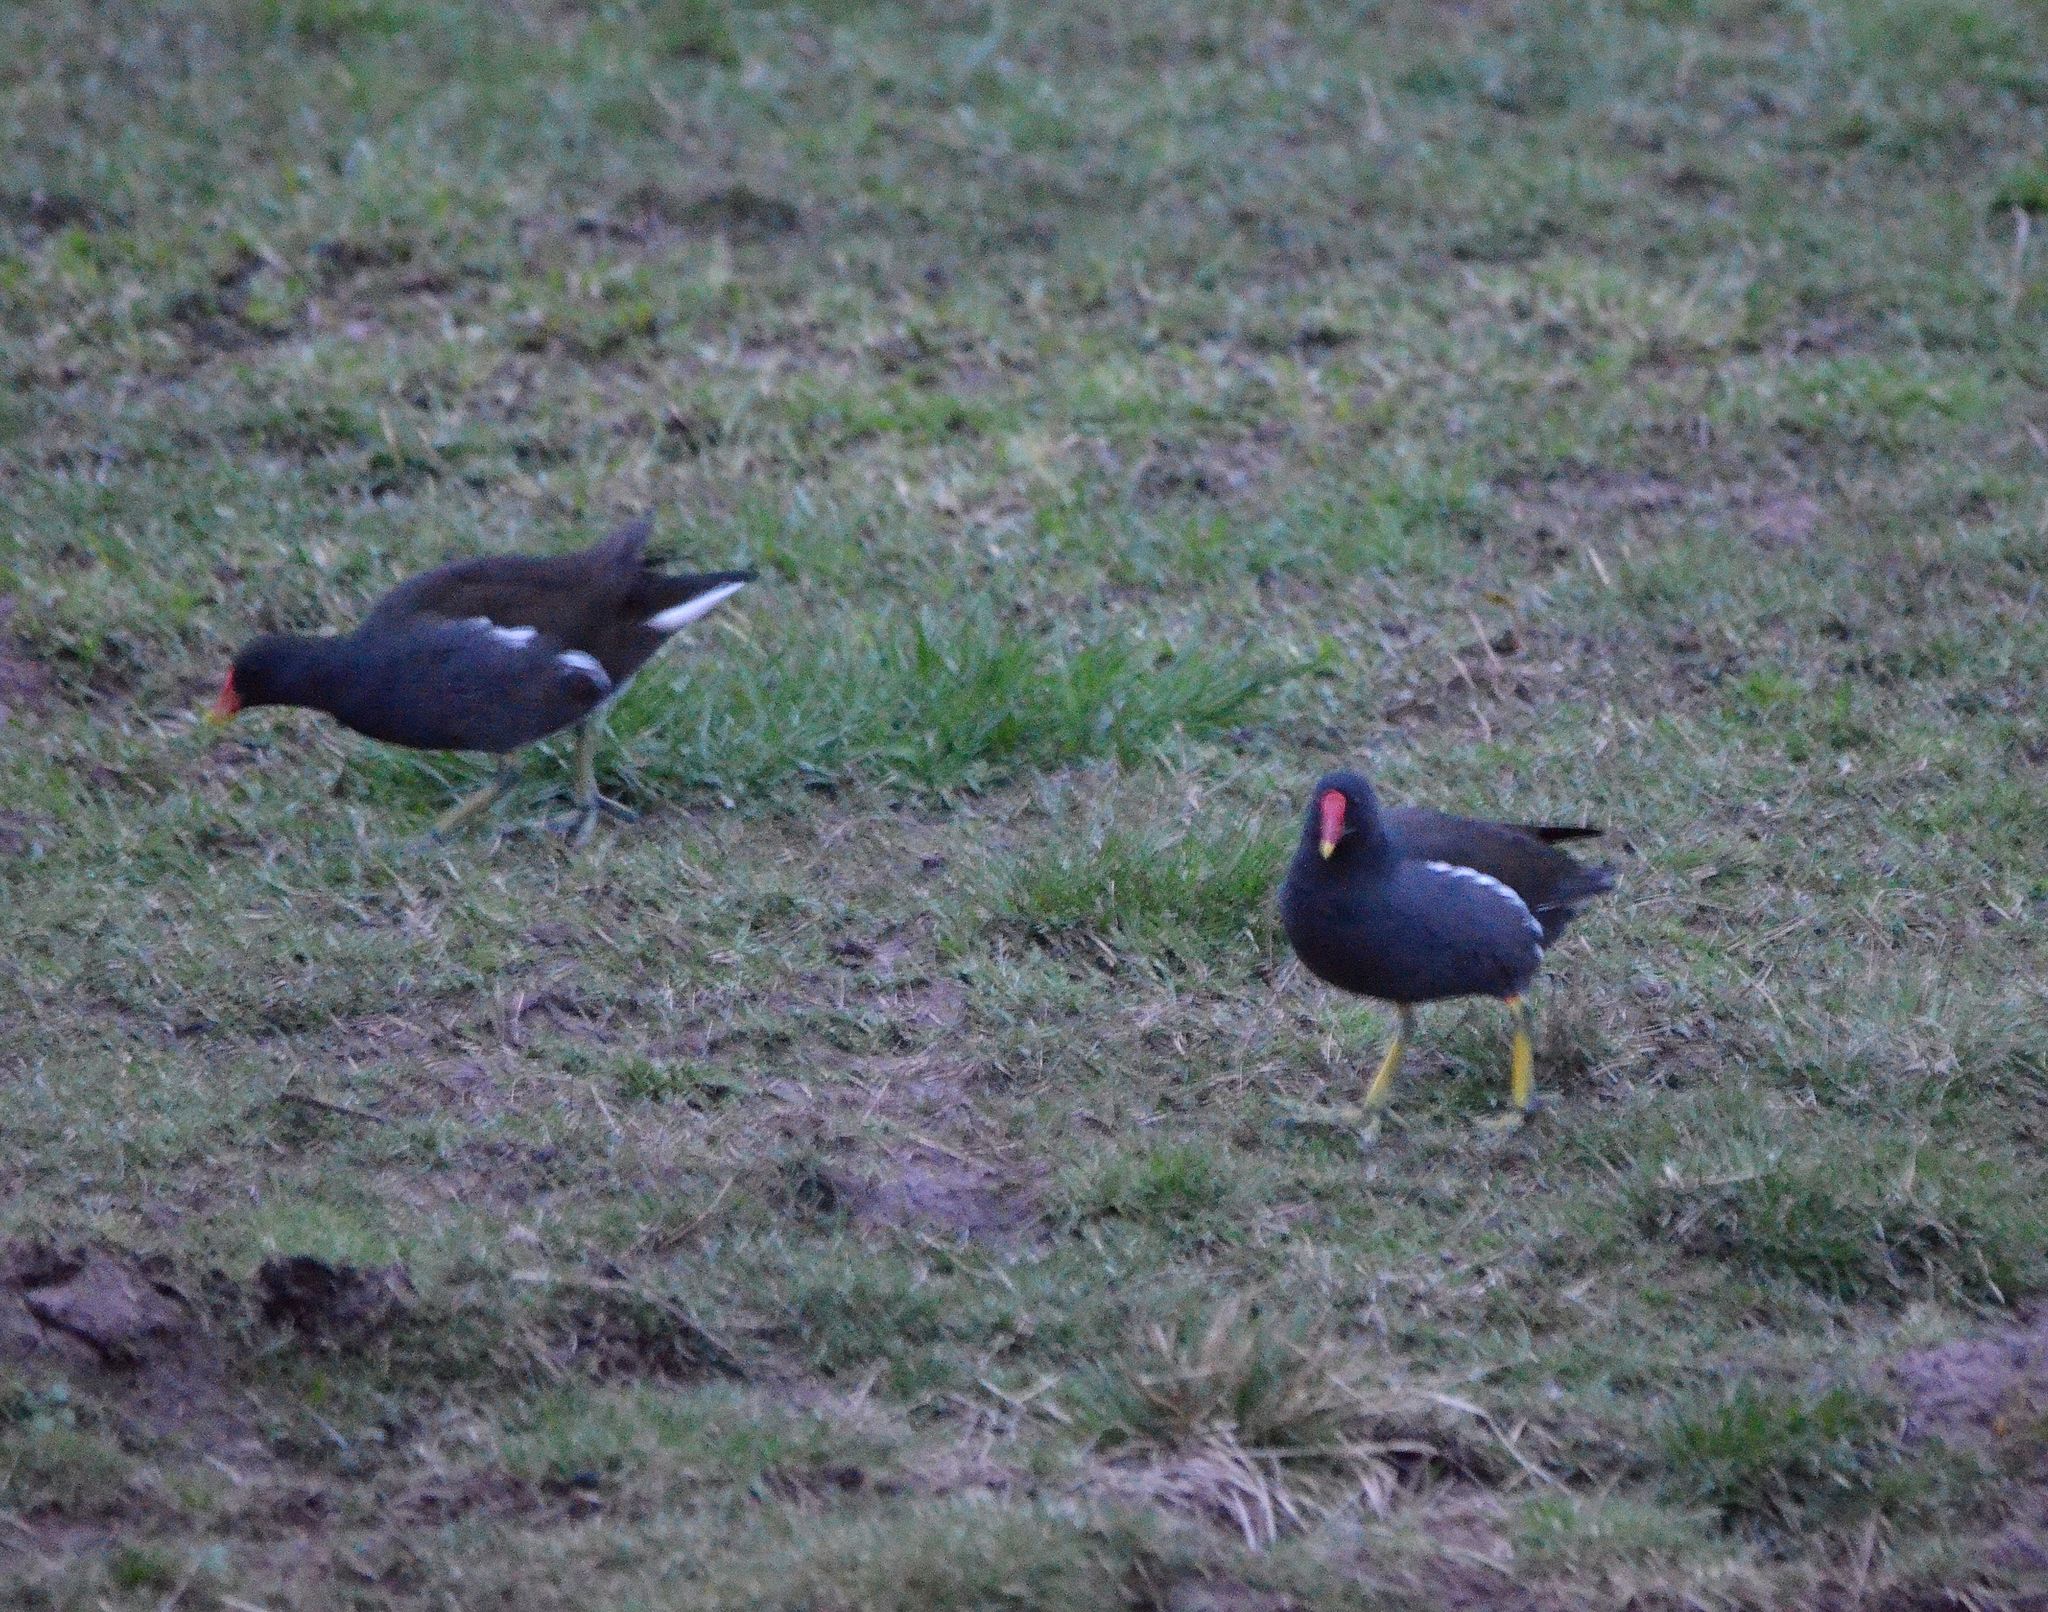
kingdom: Animalia
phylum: Chordata
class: Aves
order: Gruiformes
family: Rallidae
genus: Gallinula
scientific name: Gallinula chloropus
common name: Common moorhen
